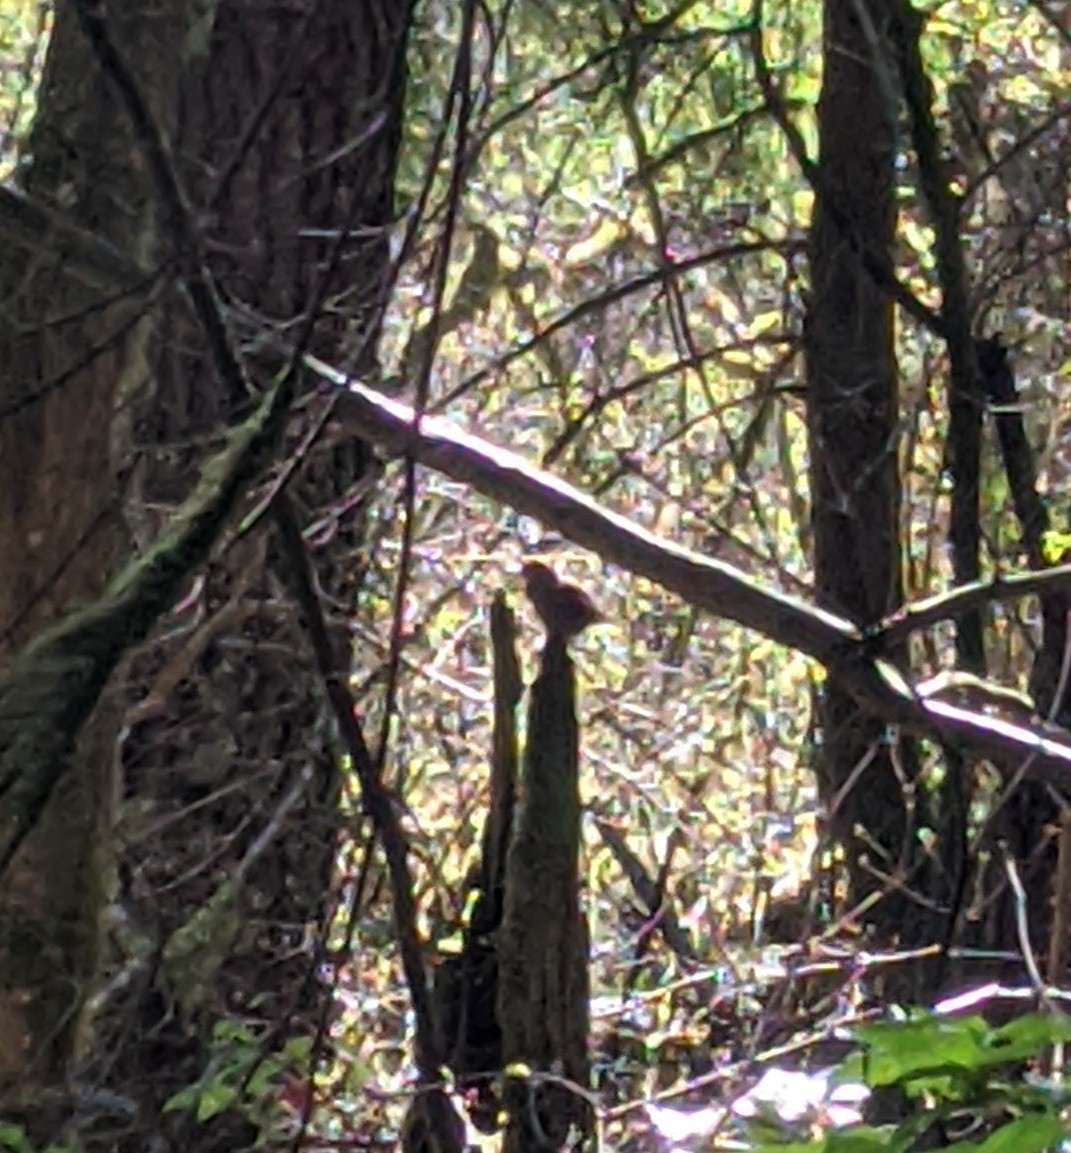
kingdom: Animalia
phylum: Chordata
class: Aves
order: Passeriformes
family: Troglodytidae
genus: Troglodytes
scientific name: Troglodytes pacificus
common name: Pacific wren
